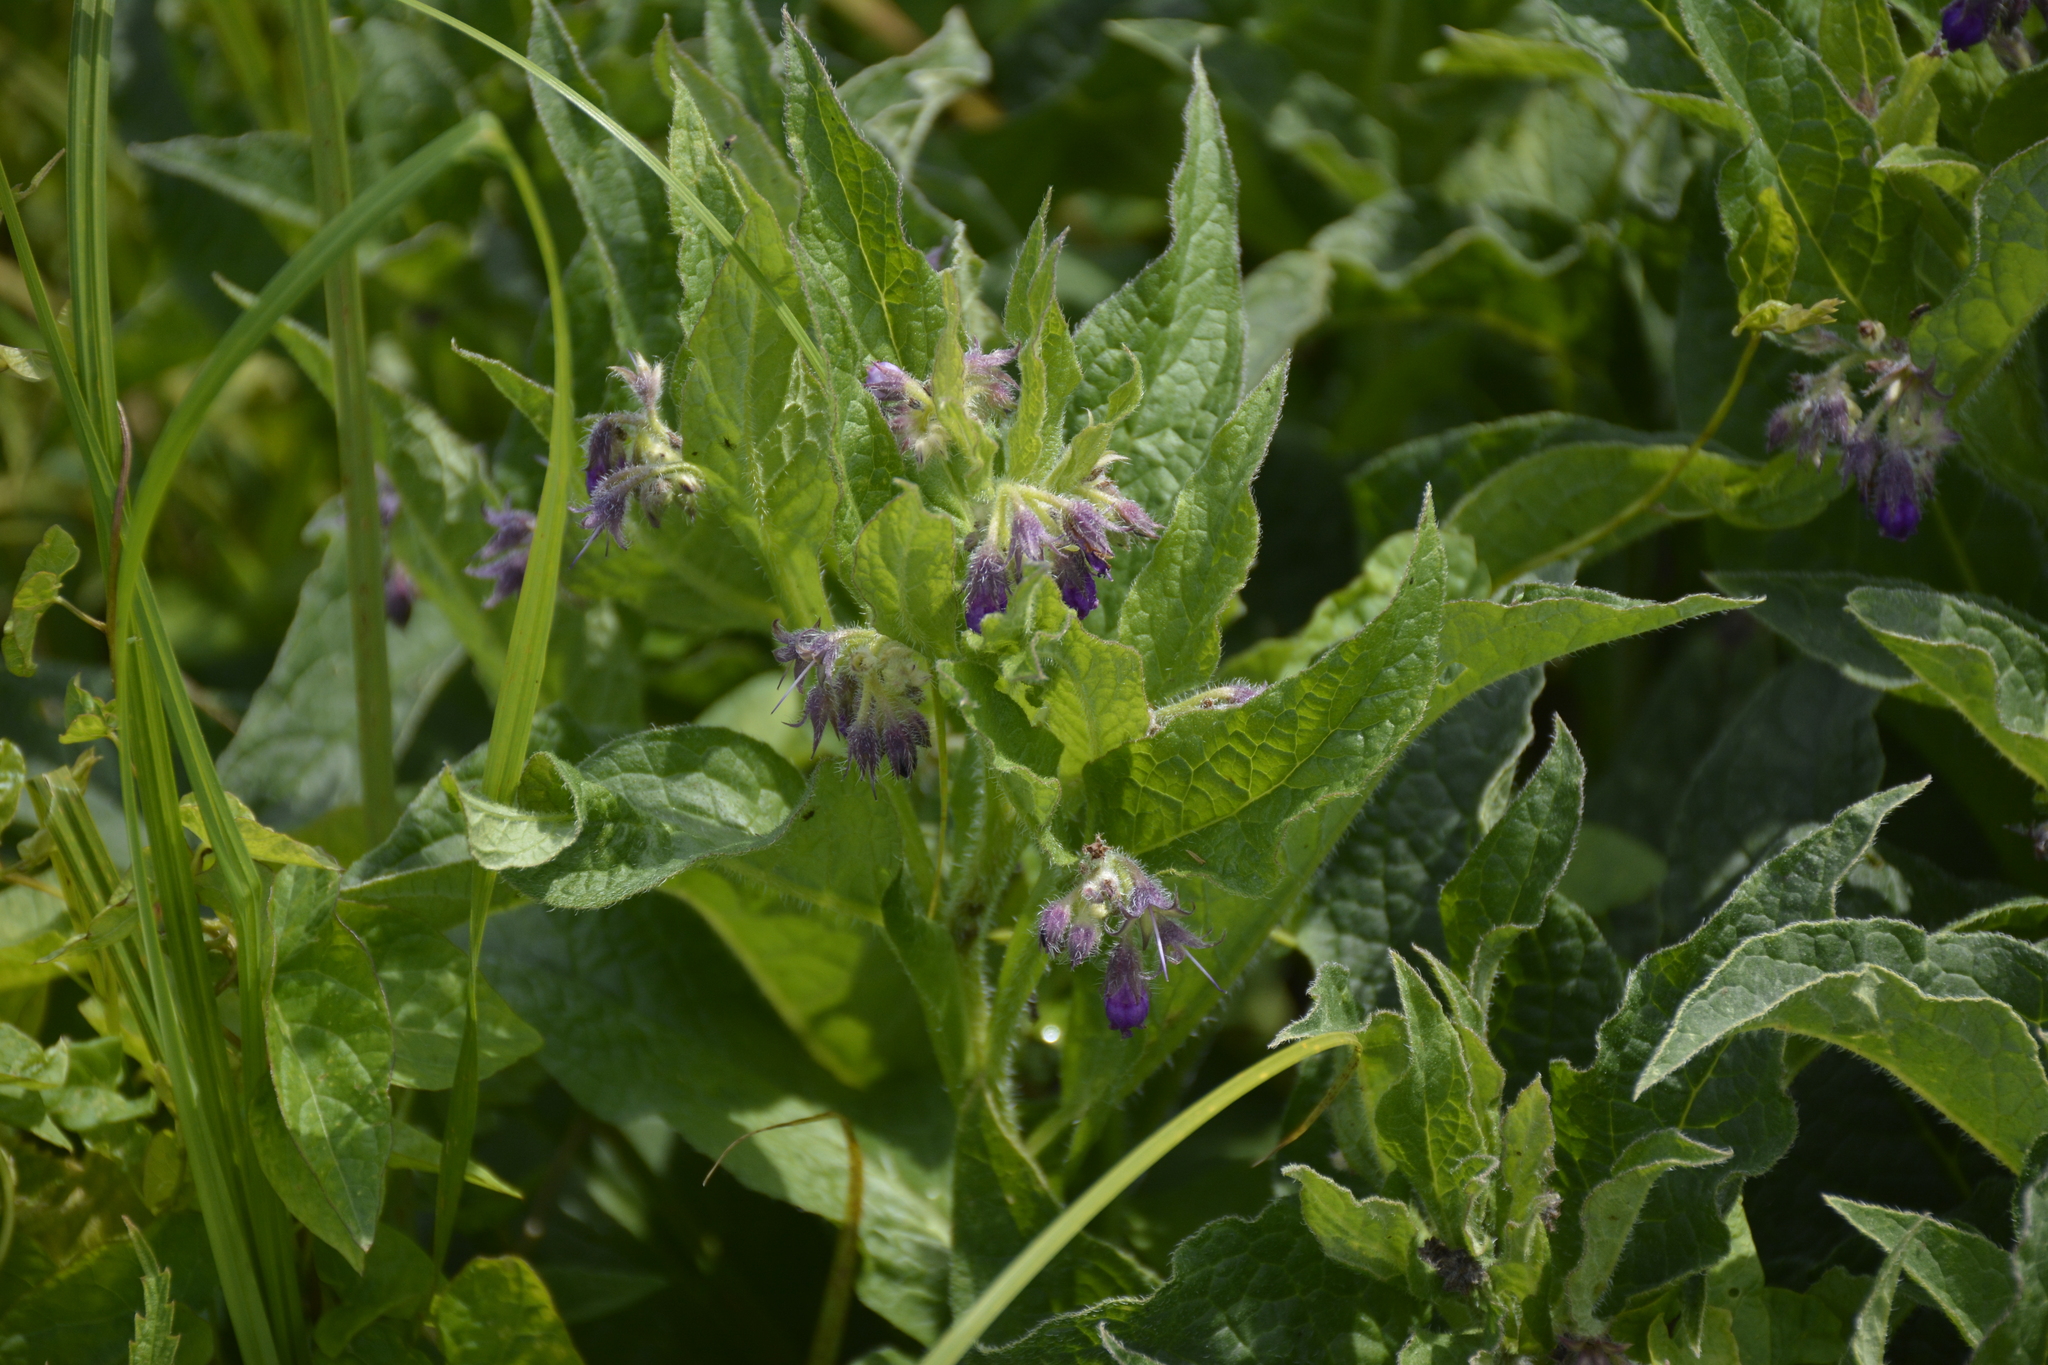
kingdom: Plantae
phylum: Tracheophyta
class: Magnoliopsida
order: Boraginales
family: Boraginaceae
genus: Symphytum
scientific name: Symphytum officinale
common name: Common comfrey
